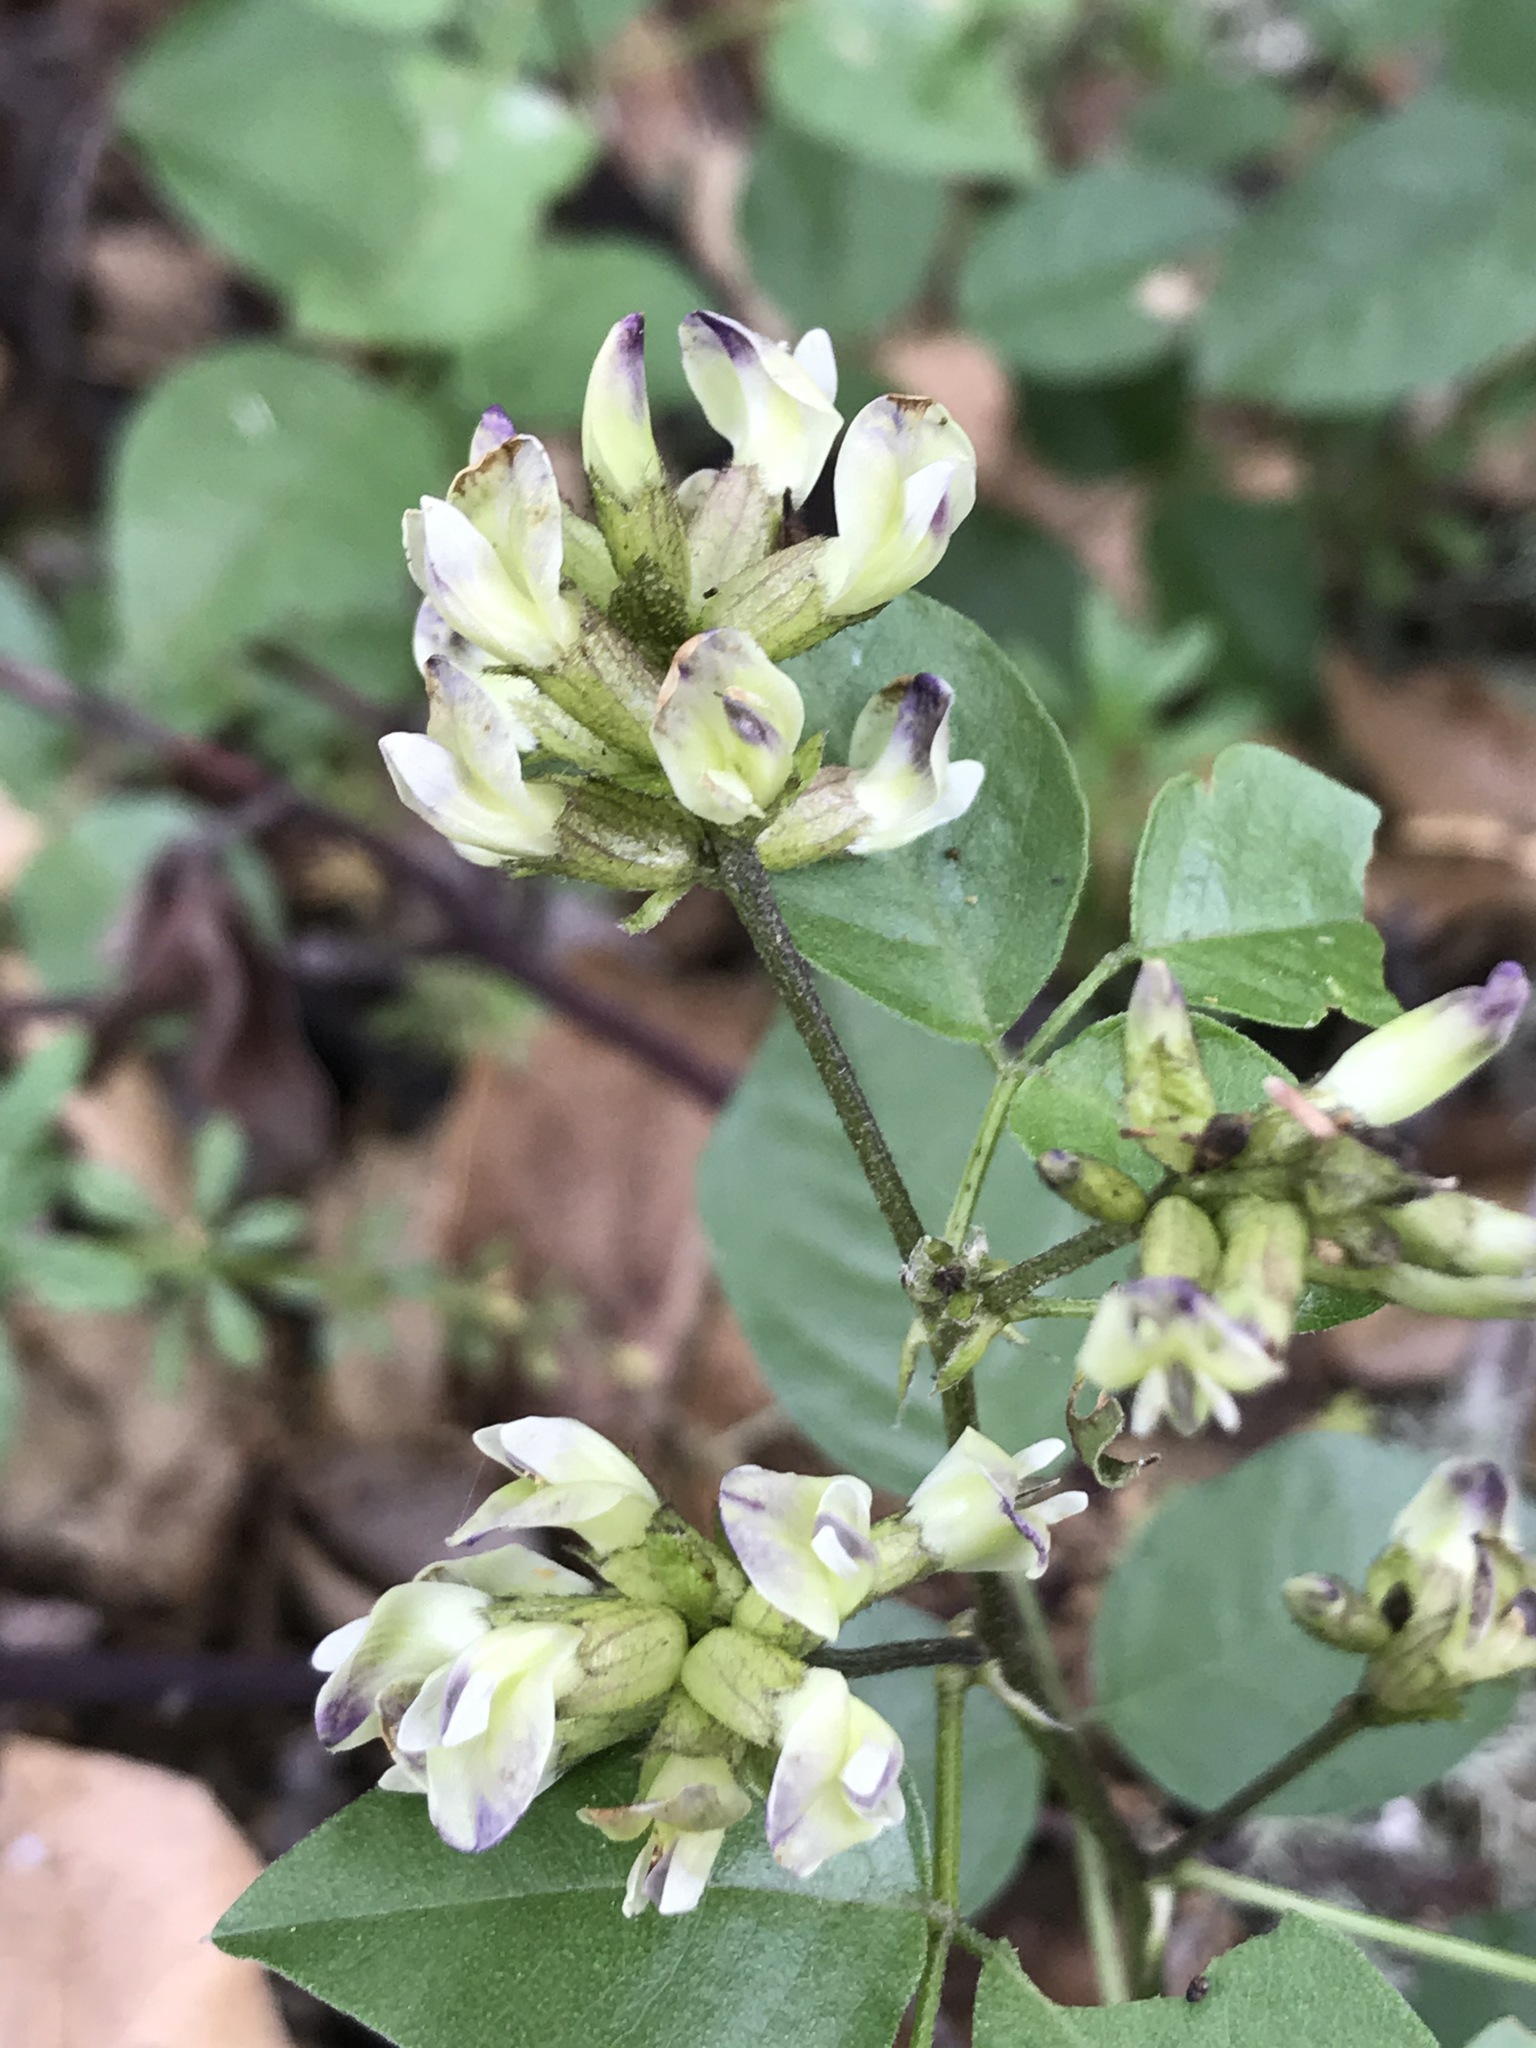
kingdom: Plantae
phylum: Tracheophyta
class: Magnoliopsida
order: Fabales
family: Fabaceae
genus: Rupertia
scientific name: Rupertia physodes
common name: California-tea
